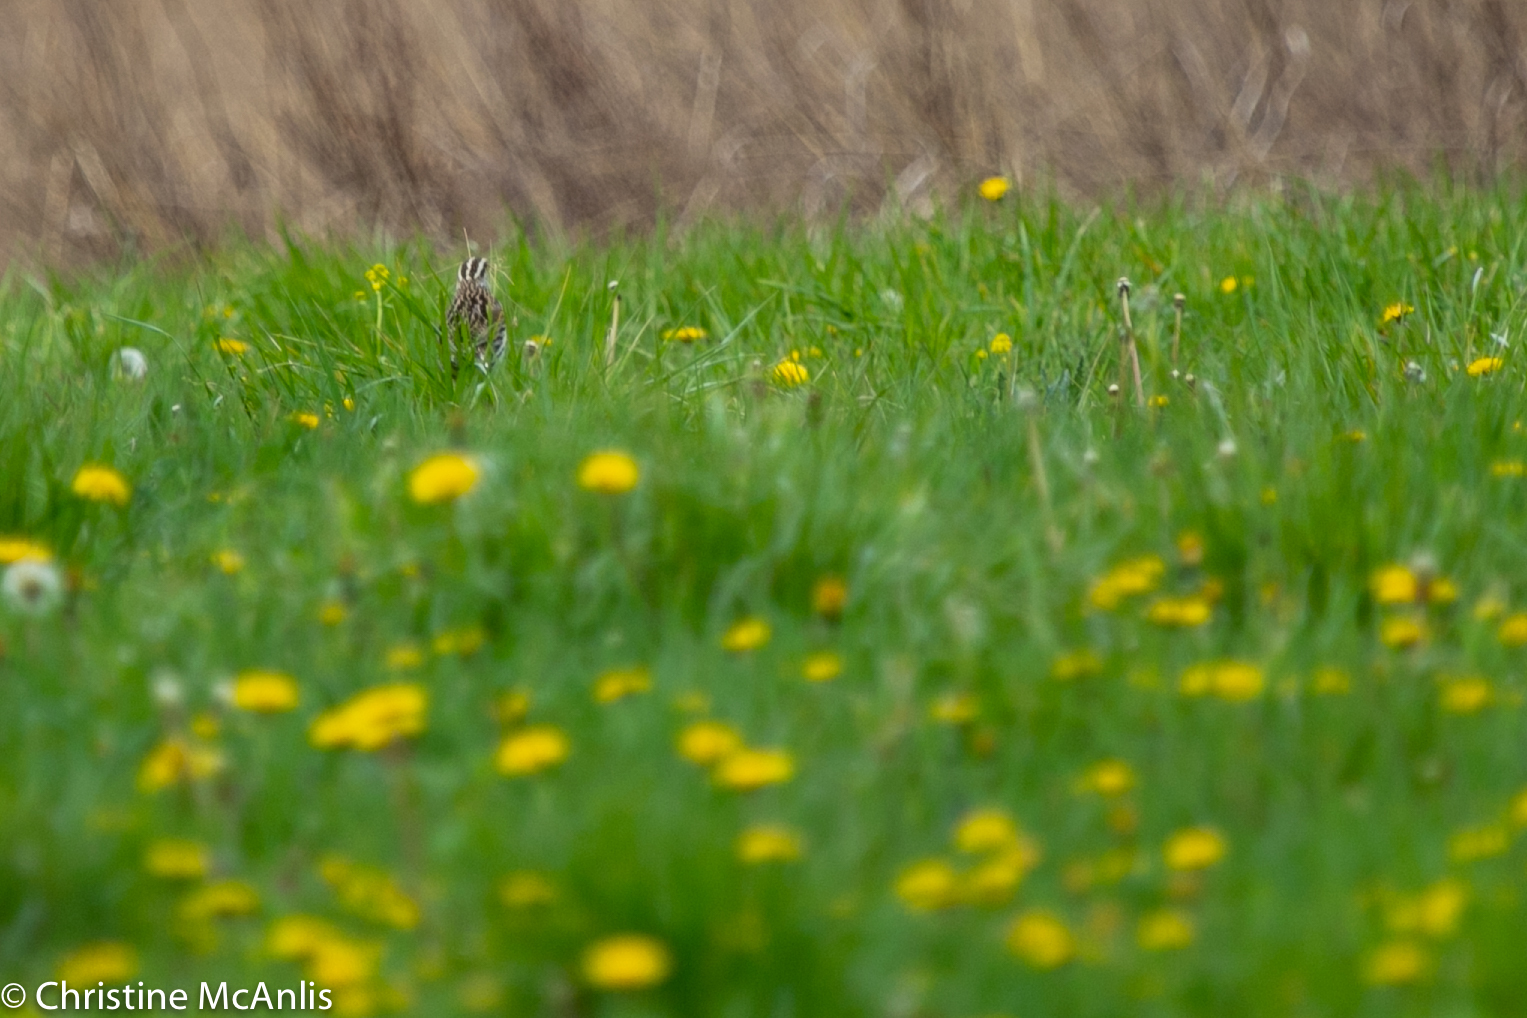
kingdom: Animalia
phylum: Chordata
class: Aves
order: Passeriformes
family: Icteridae
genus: Sturnella
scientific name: Sturnella magna
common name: Eastern meadowlark
